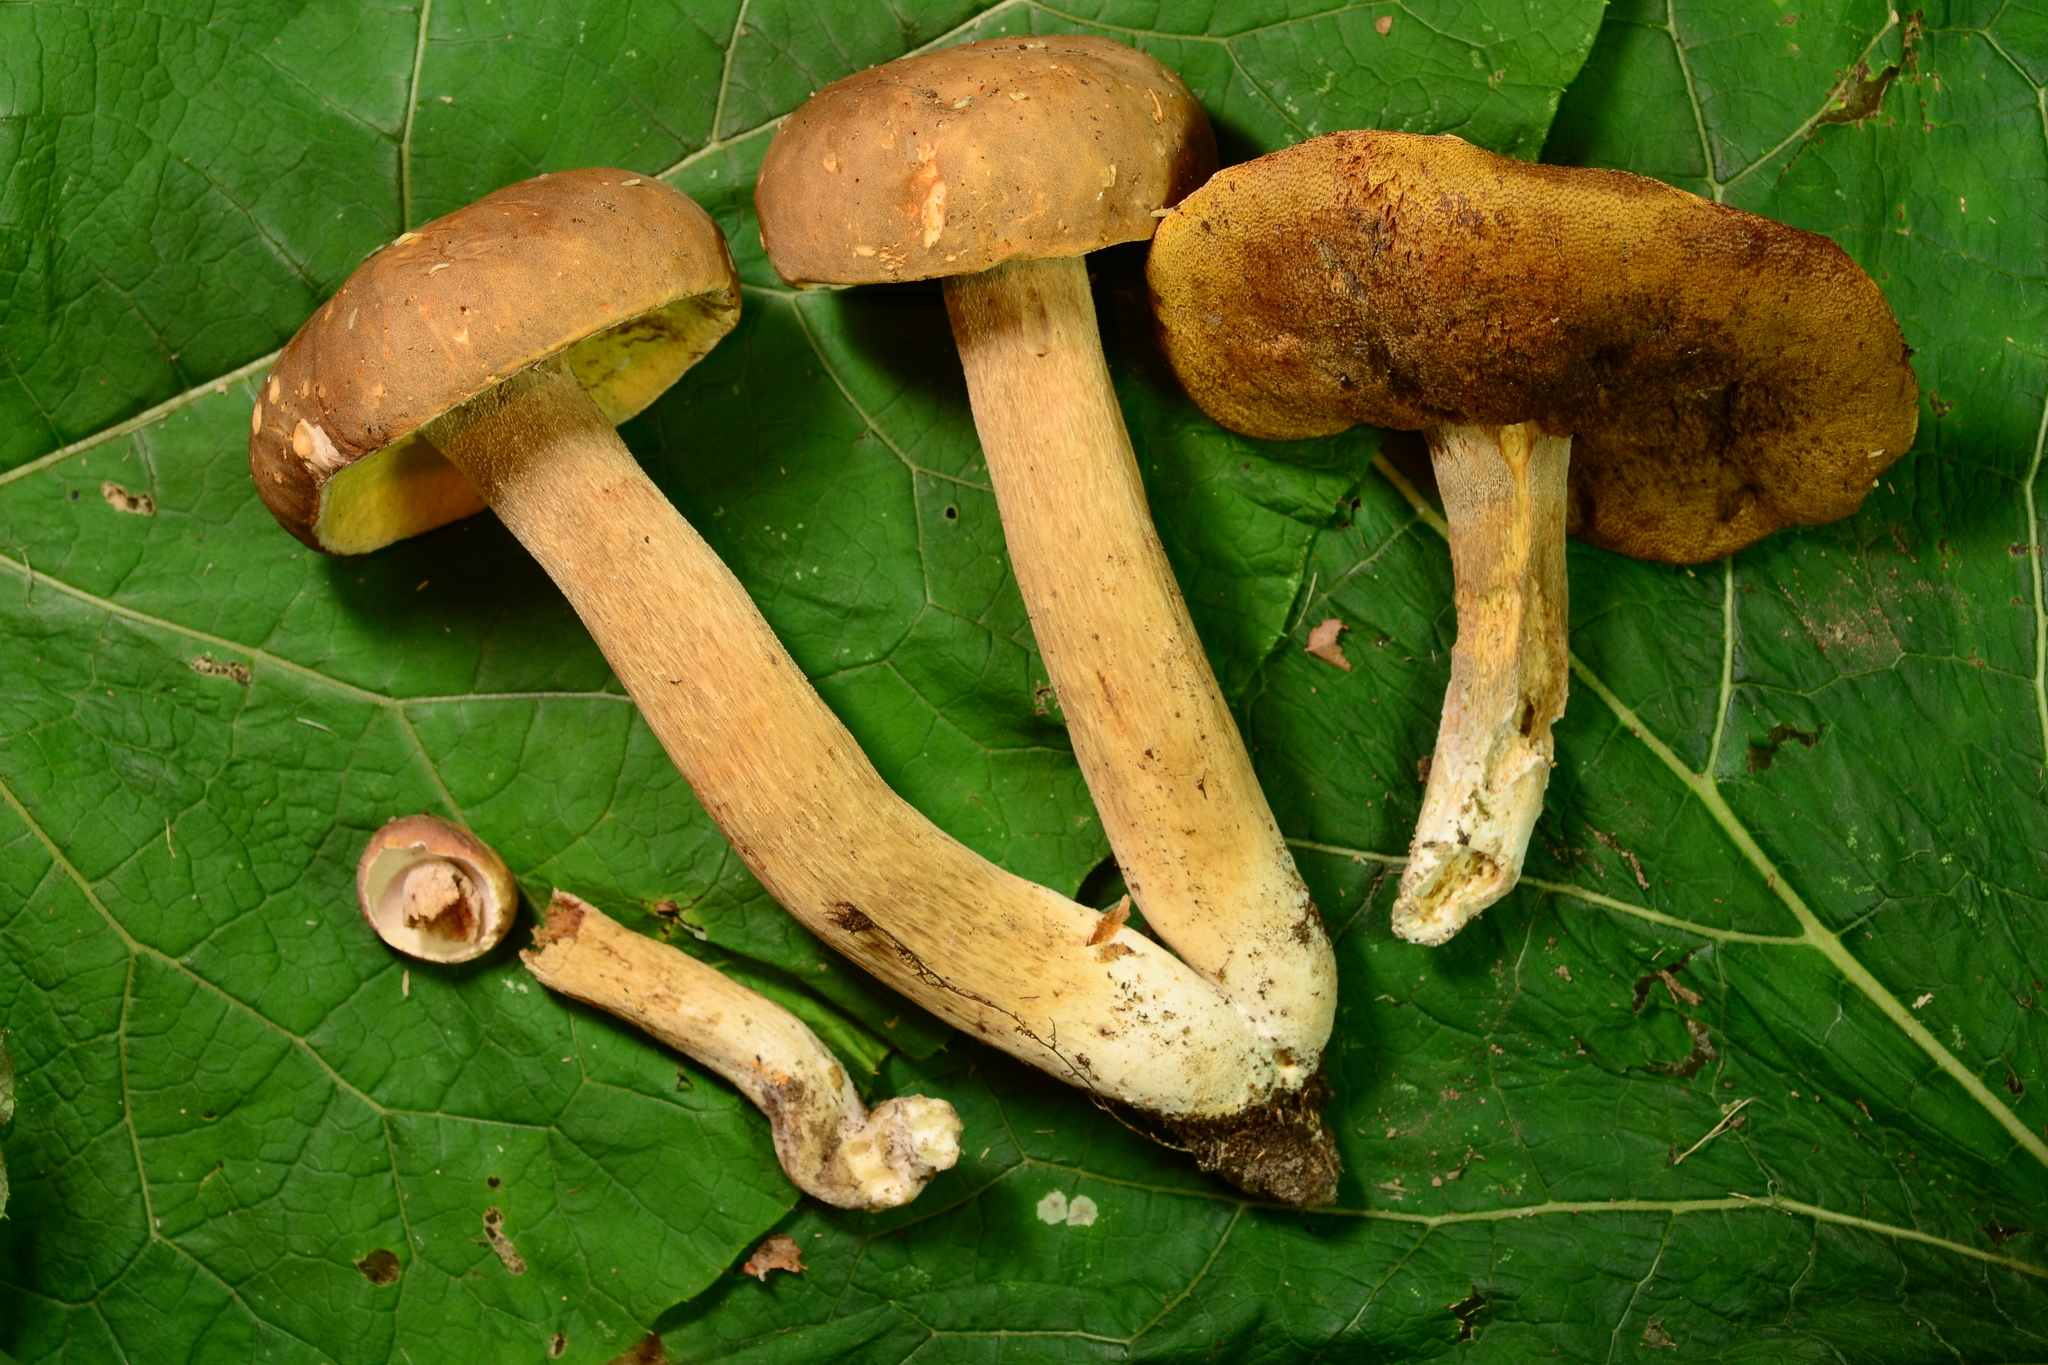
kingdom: Fungi
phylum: Basidiomycota
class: Agaricomycetes
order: Boletales
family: Boletaceae
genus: Boletus
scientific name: Boletus variipes
